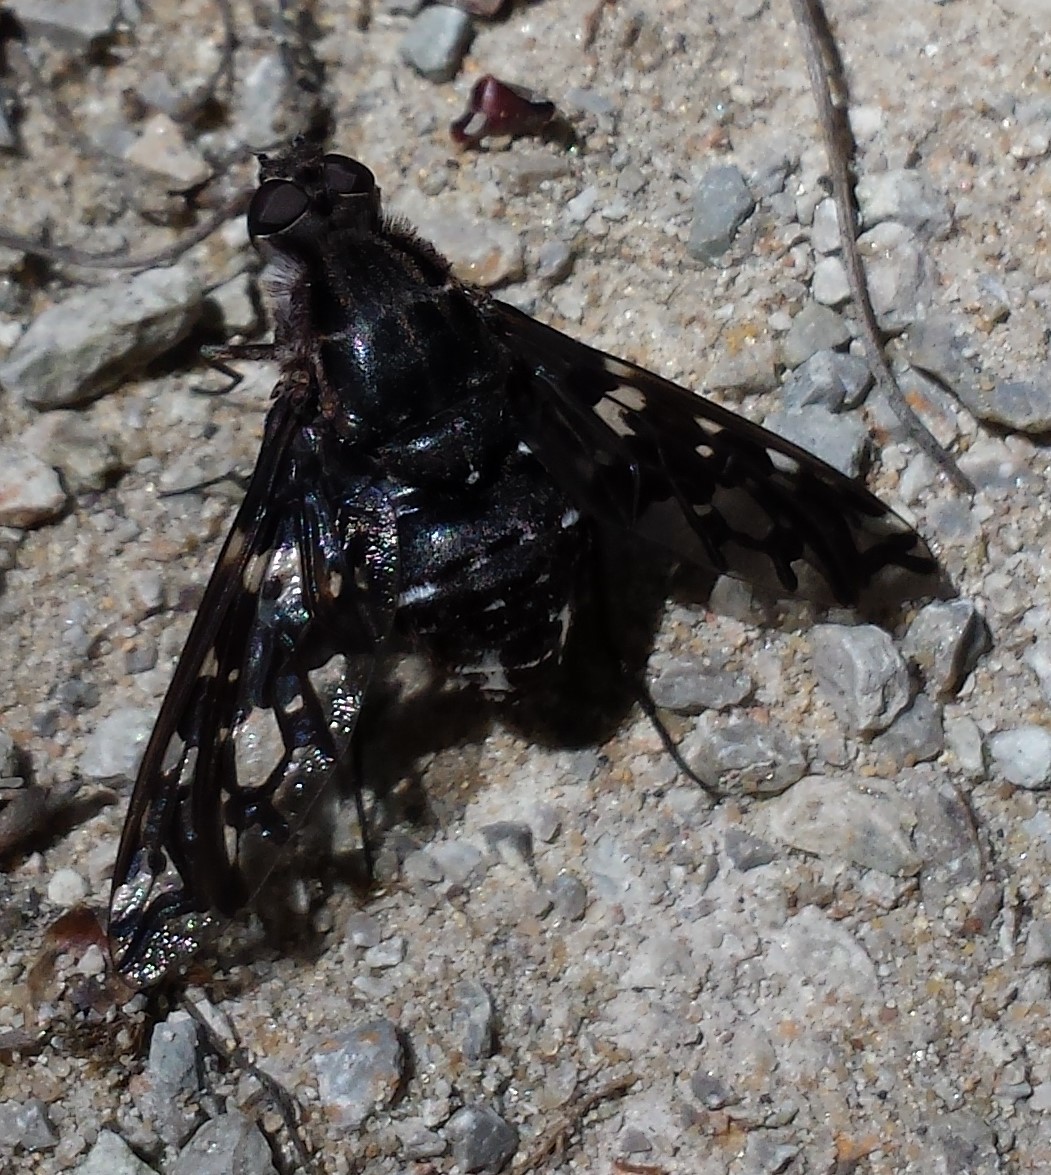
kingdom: Animalia
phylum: Arthropoda
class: Insecta
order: Diptera
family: Bombyliidae
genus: Xenox
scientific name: Xenox tigrinus
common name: Tiger bee fly
